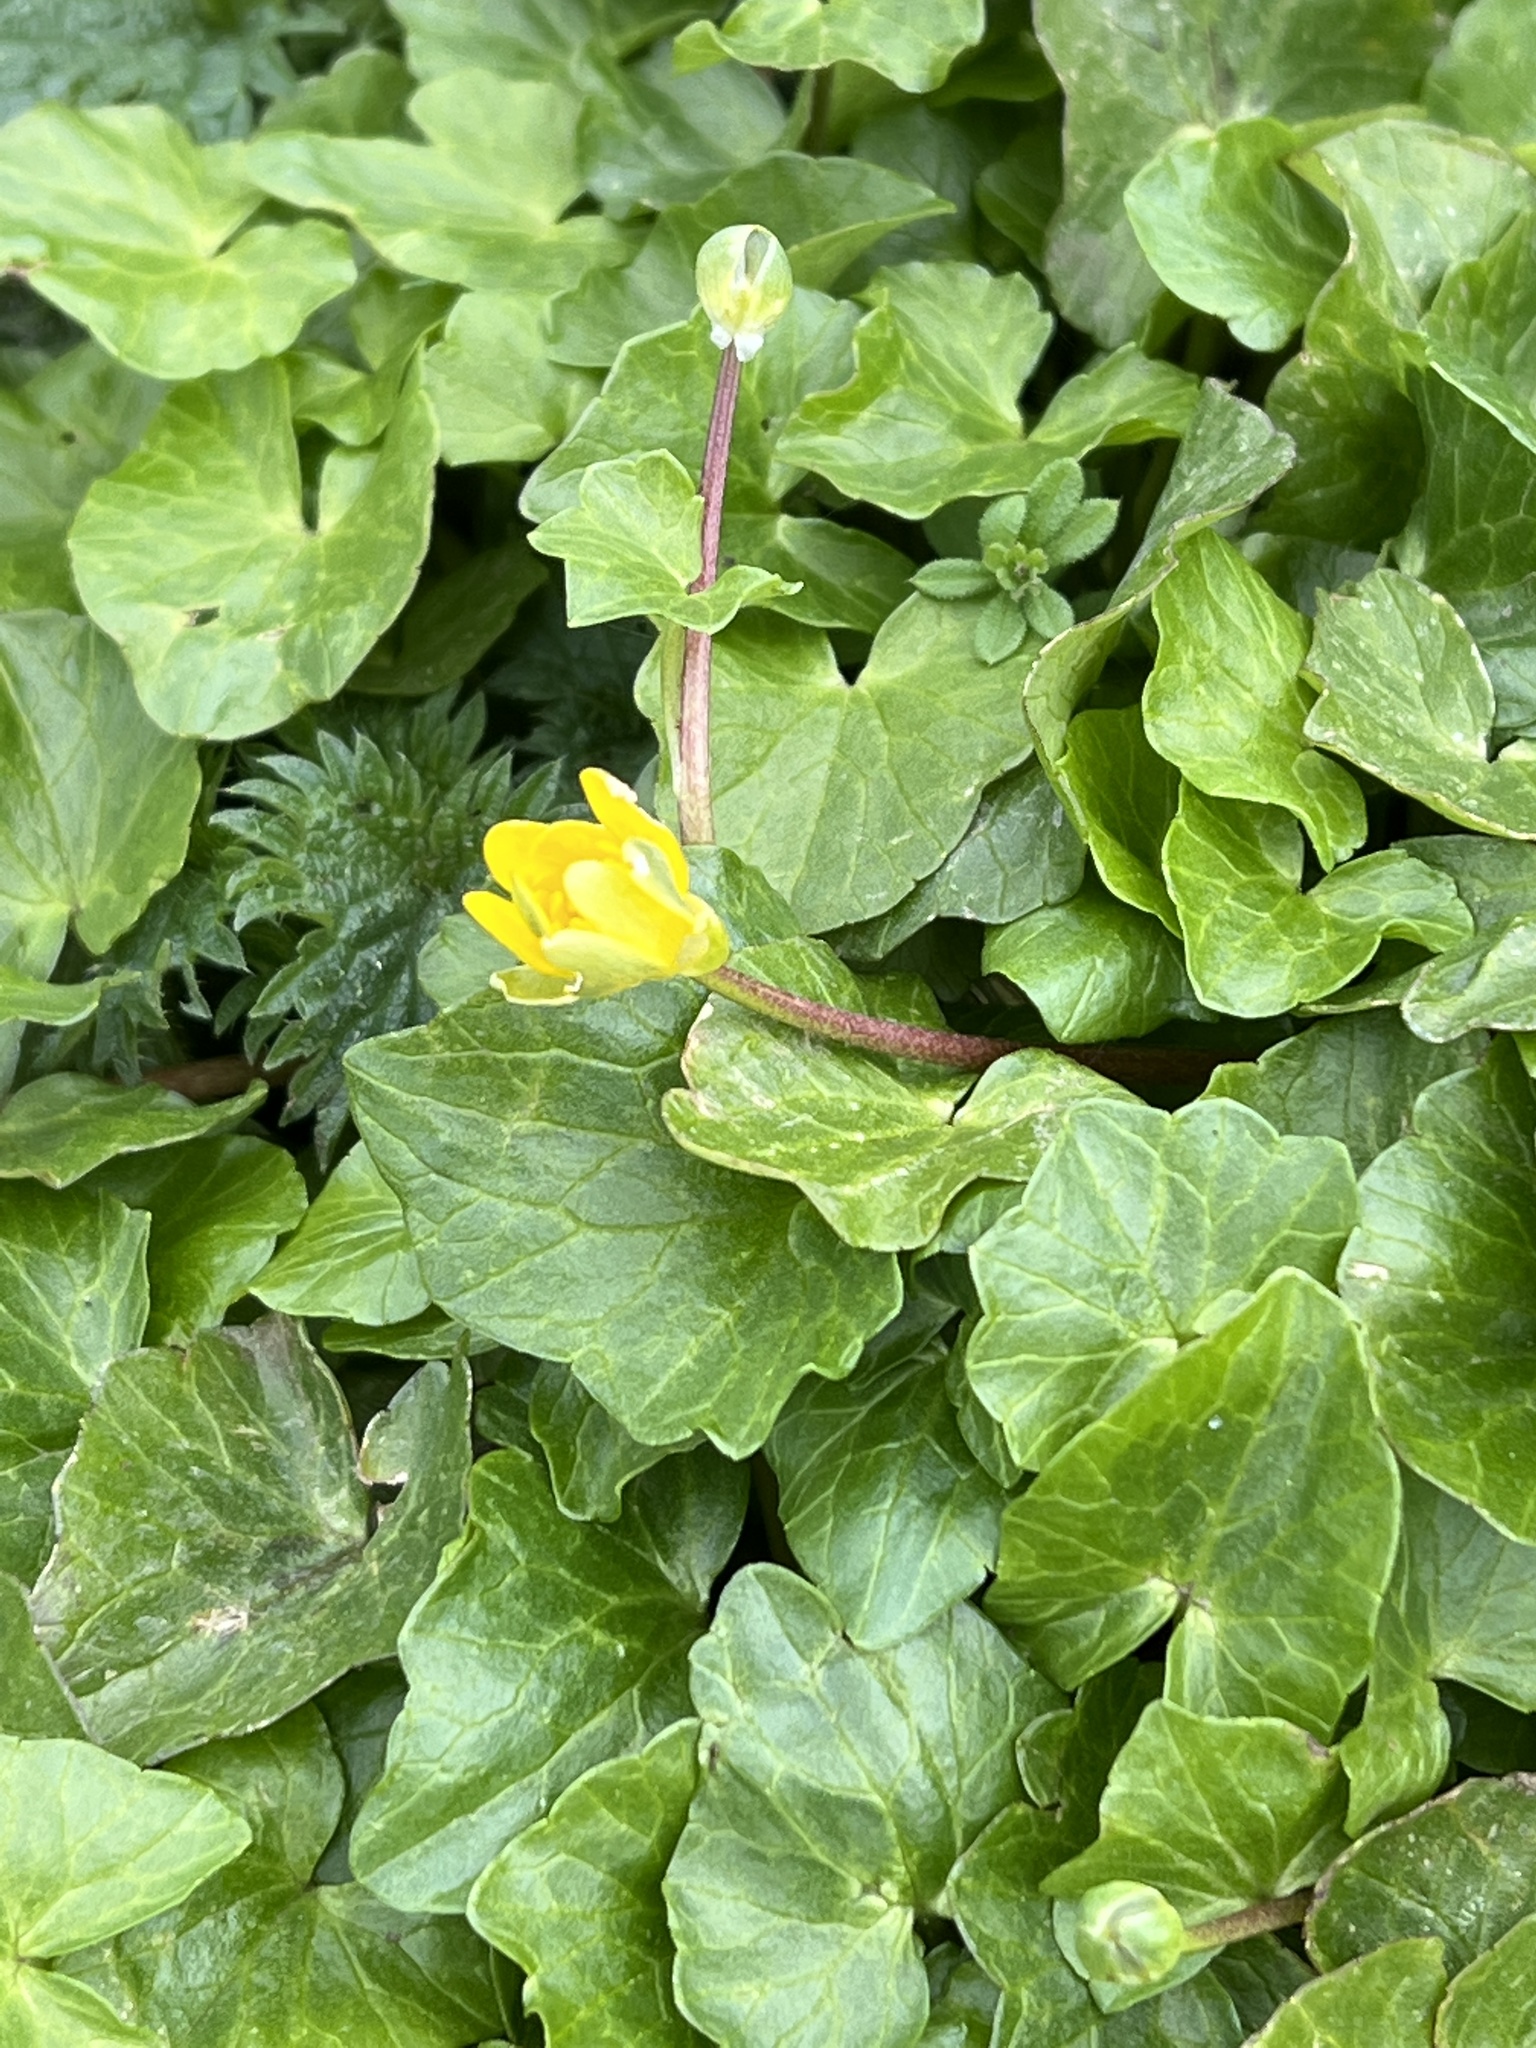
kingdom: Plantae
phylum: Tracheophyta
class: Magnoliopsida
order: Ranunculales
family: Ranunculaceae
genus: Ficaria
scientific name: Ficaria verna
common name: Lesser celandine
